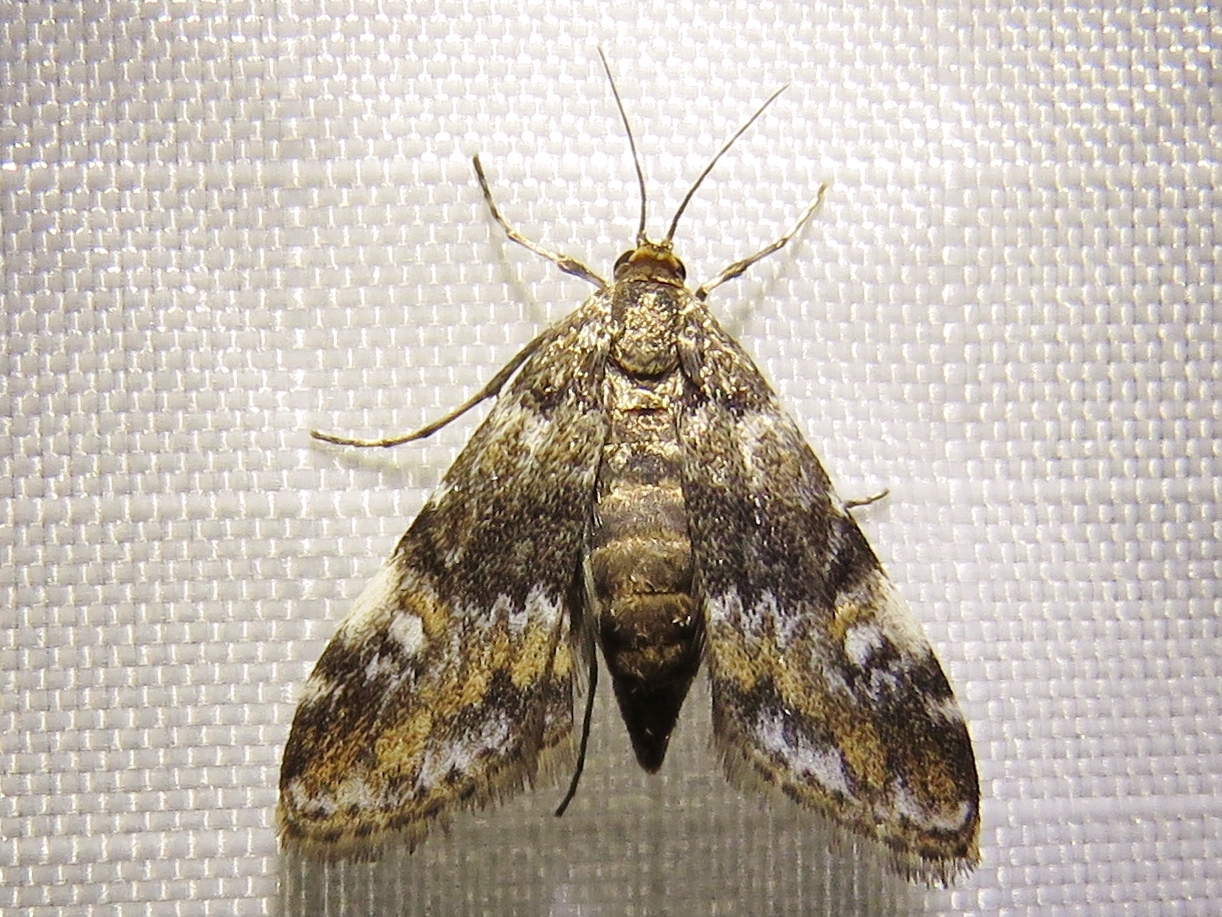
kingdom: Animalia
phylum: Arthropoda
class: Insecta
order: Lepidoptera
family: Crambidae
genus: Elophila
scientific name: Elophila obliteralis
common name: Waterlily leafcutter moth
